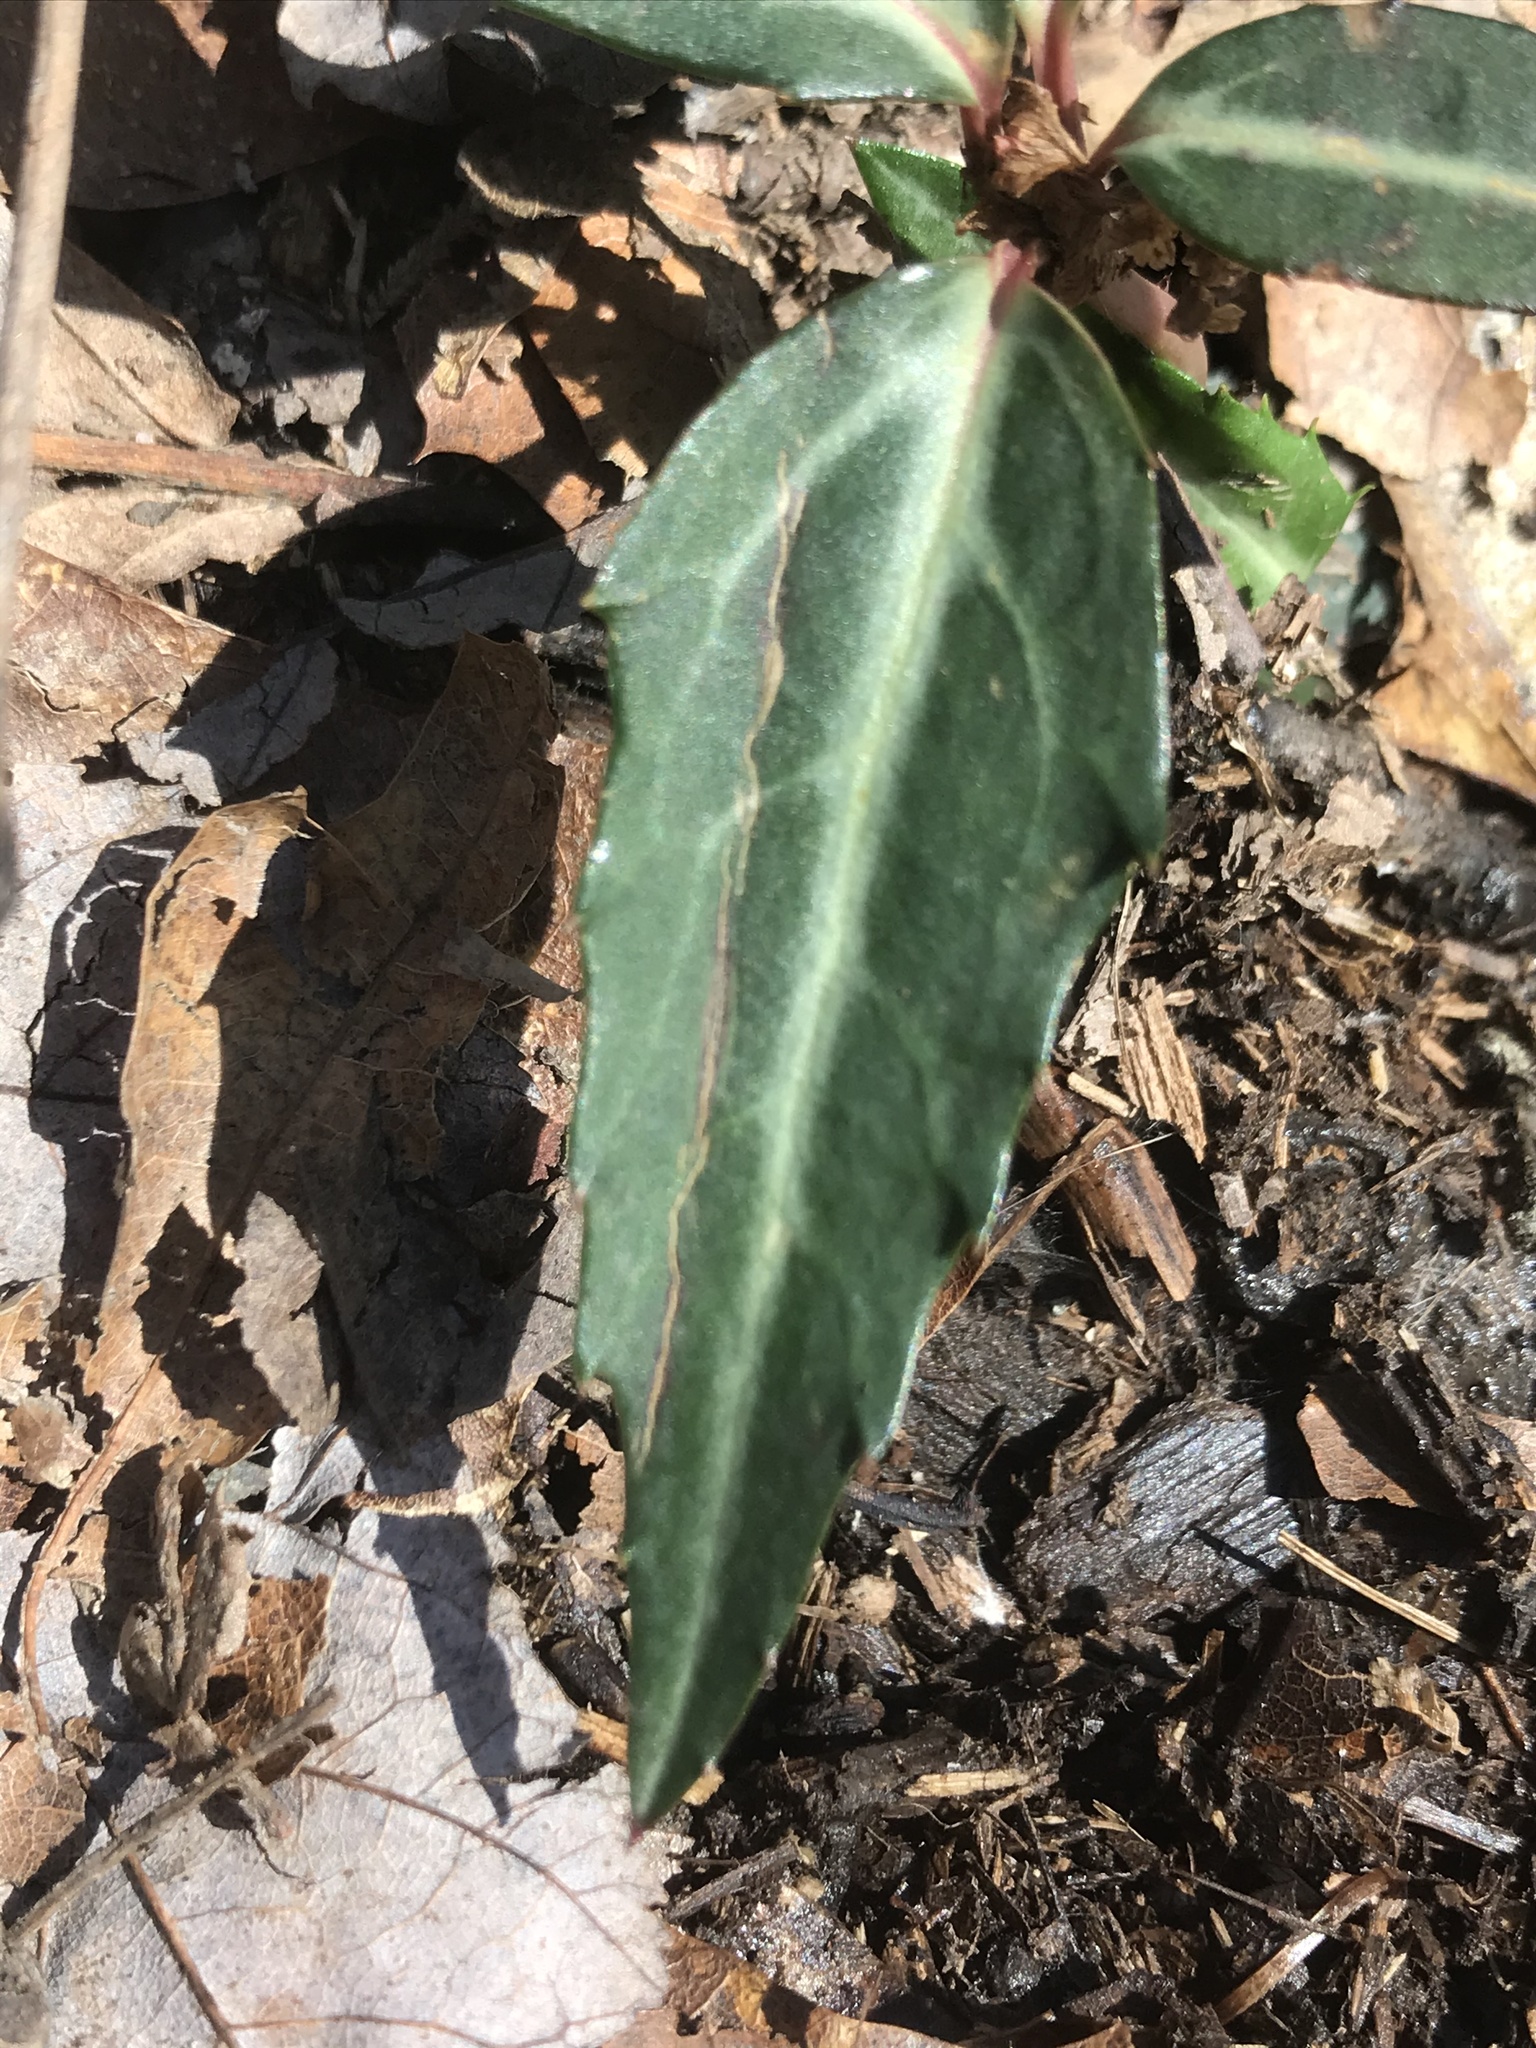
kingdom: Plantae
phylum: Tracheophyta
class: Magnoliopsida
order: Ericales
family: Ericaceae
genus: Chimaphila
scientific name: Chimaphila maculata
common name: Spotted pipsissewa
